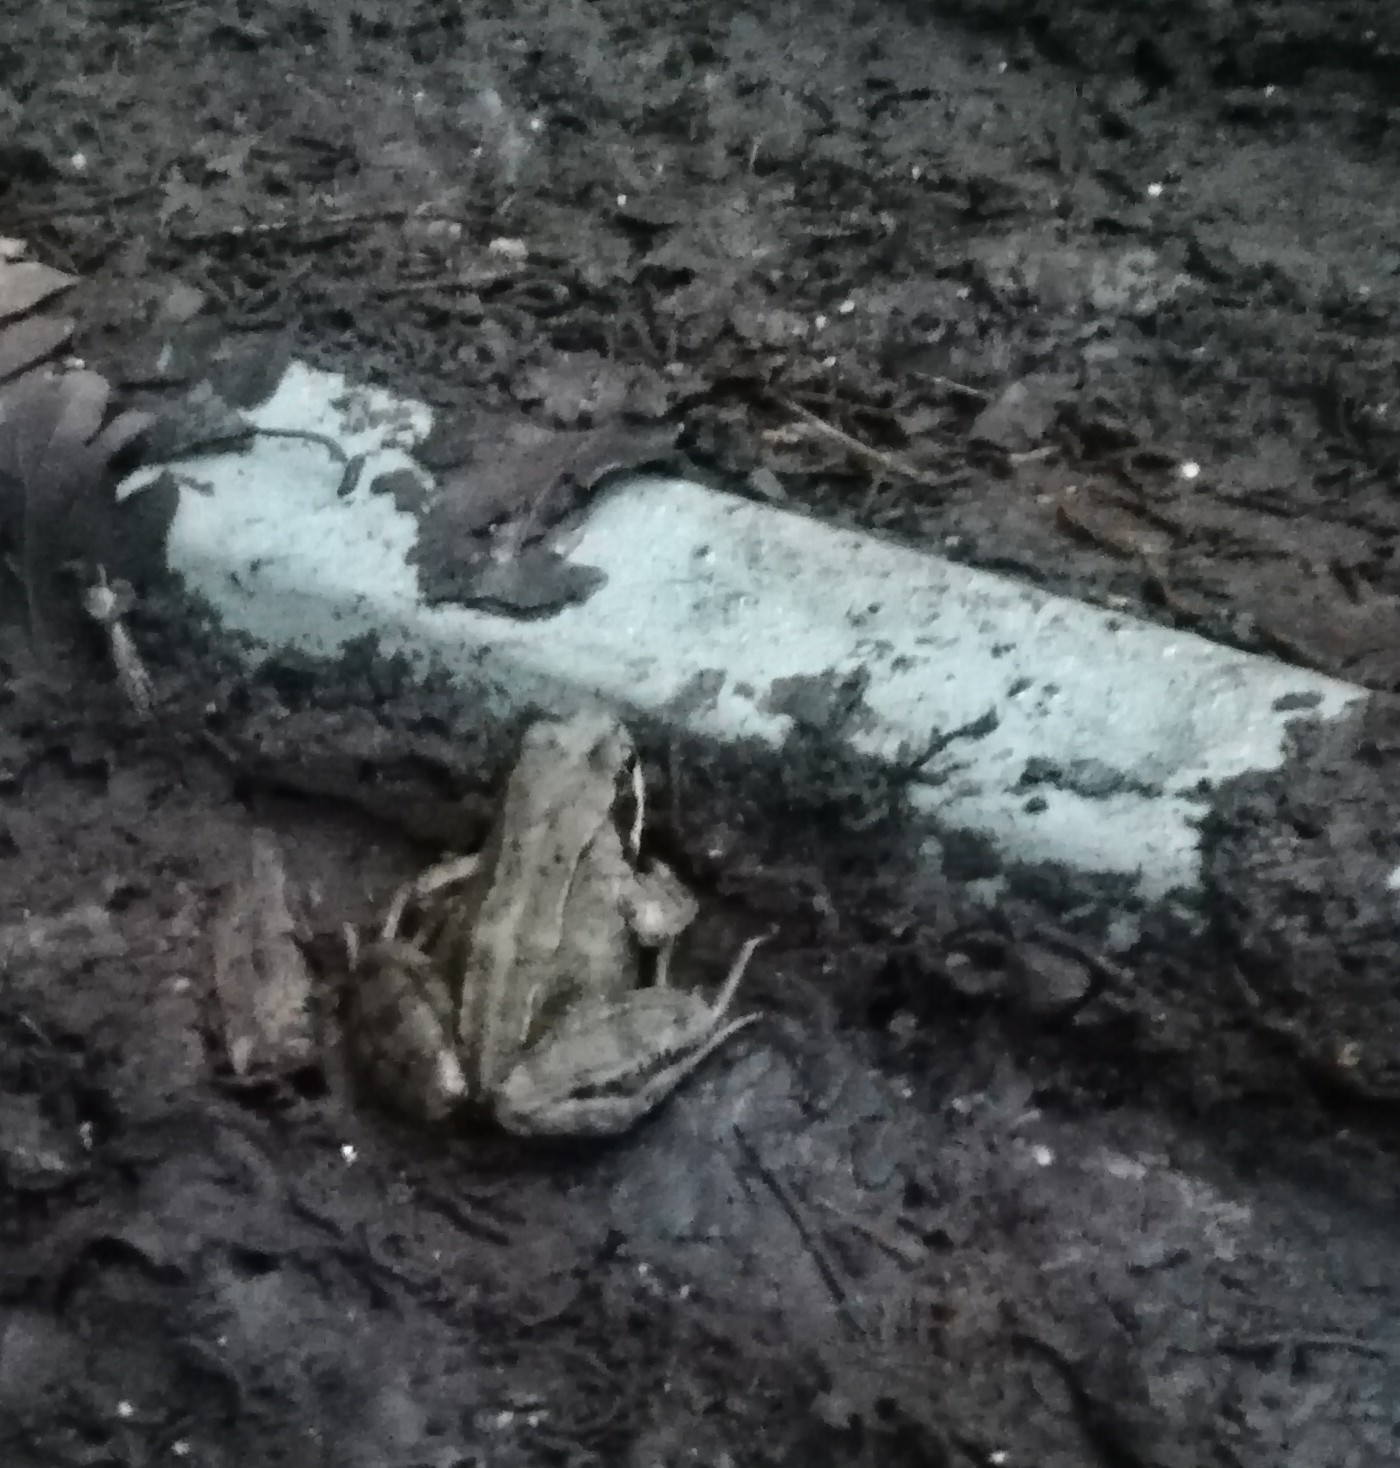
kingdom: Animalia
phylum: Chordata
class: Amphibia
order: Anura
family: Ranidae
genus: Rana
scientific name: Rana temporaria
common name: Common frog
